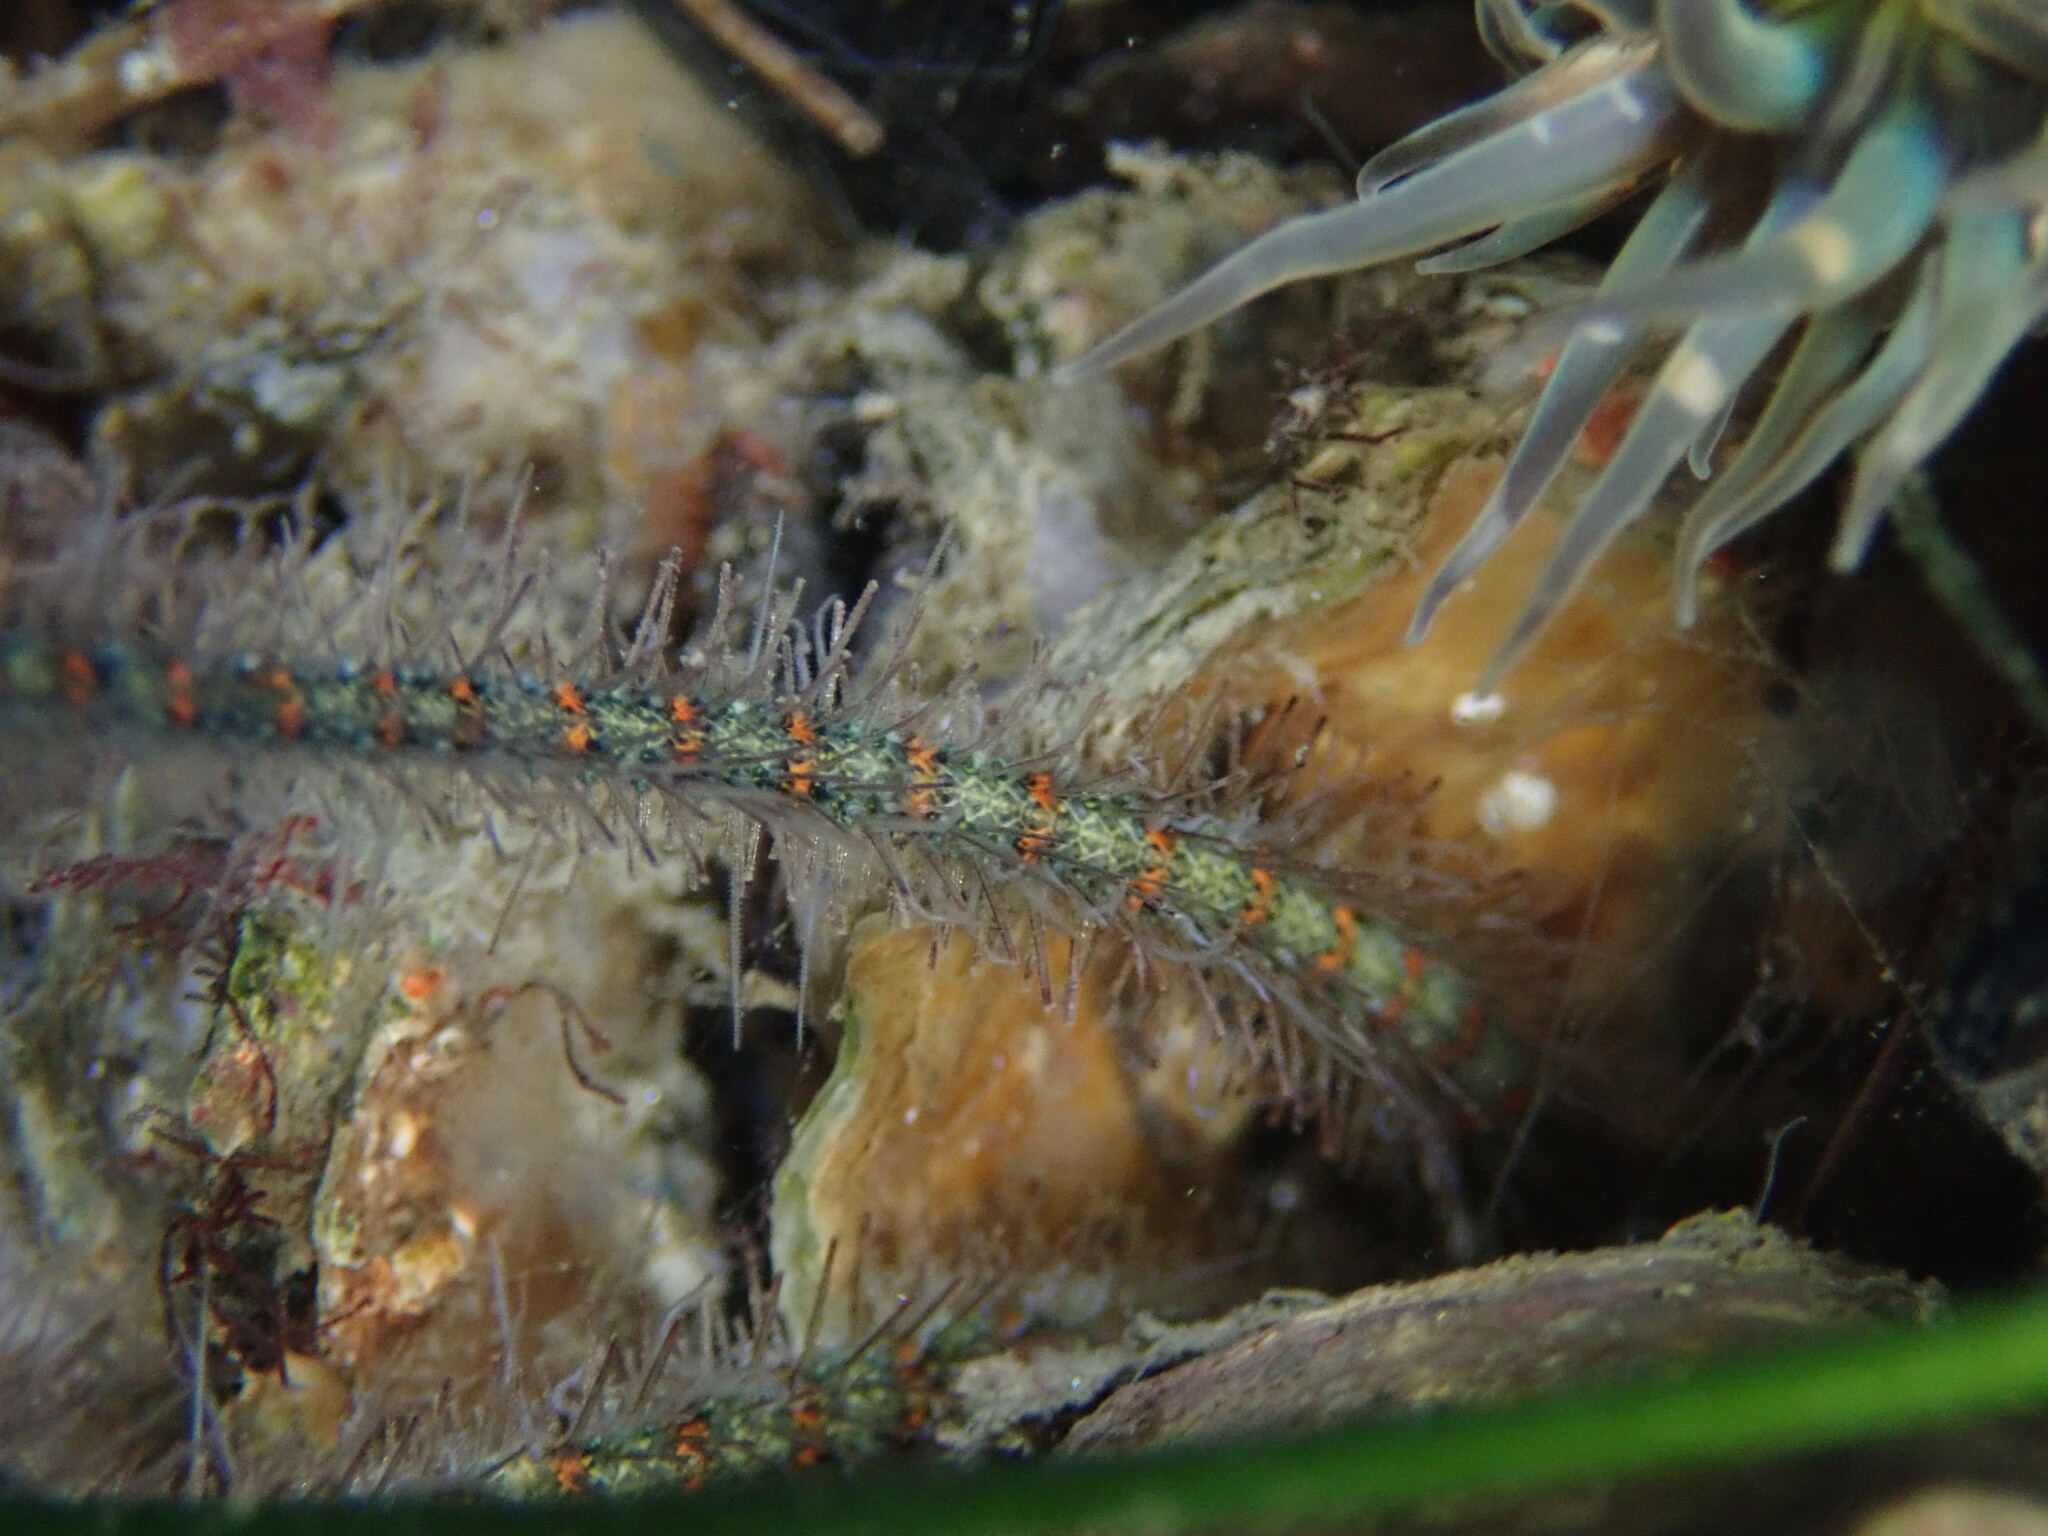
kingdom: Animalia
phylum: Echinodermata
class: Ophiuroidea
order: Amphilepidida
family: Ophiotrichidae
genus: Ophiothrix
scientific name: Ophiothrix spiculata
